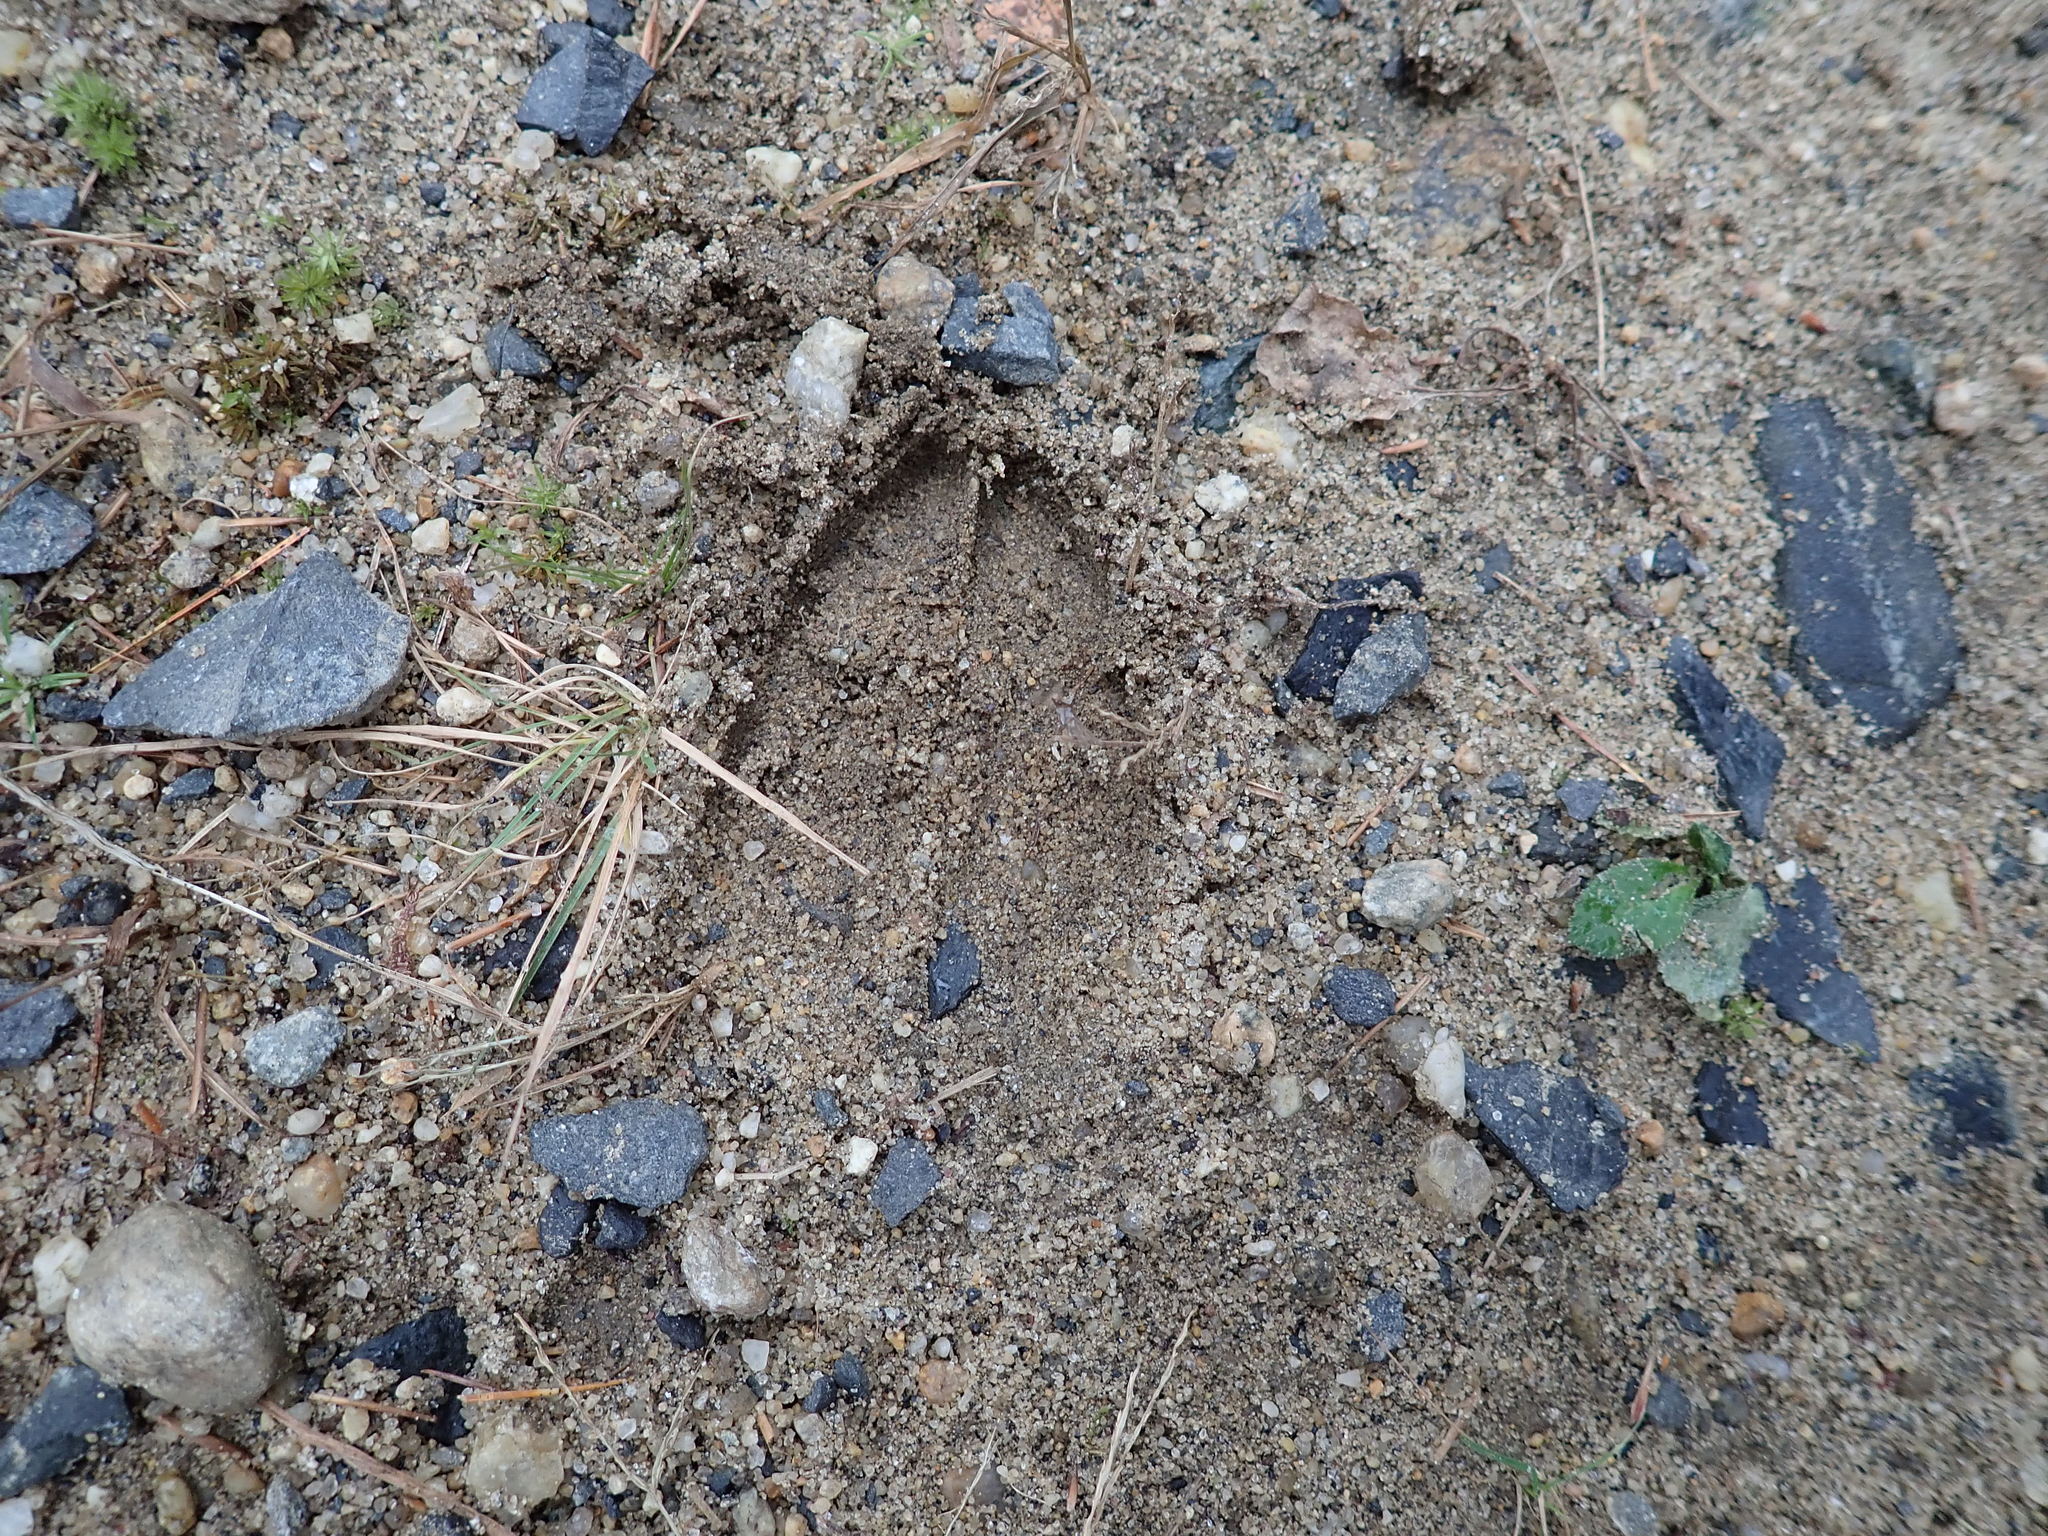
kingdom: Animalia
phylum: Chordata
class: Mammalia
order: Artiodactyla
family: Cervidae
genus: Odocoileus
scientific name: Odocoileus virginianus
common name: White-tailed deer
